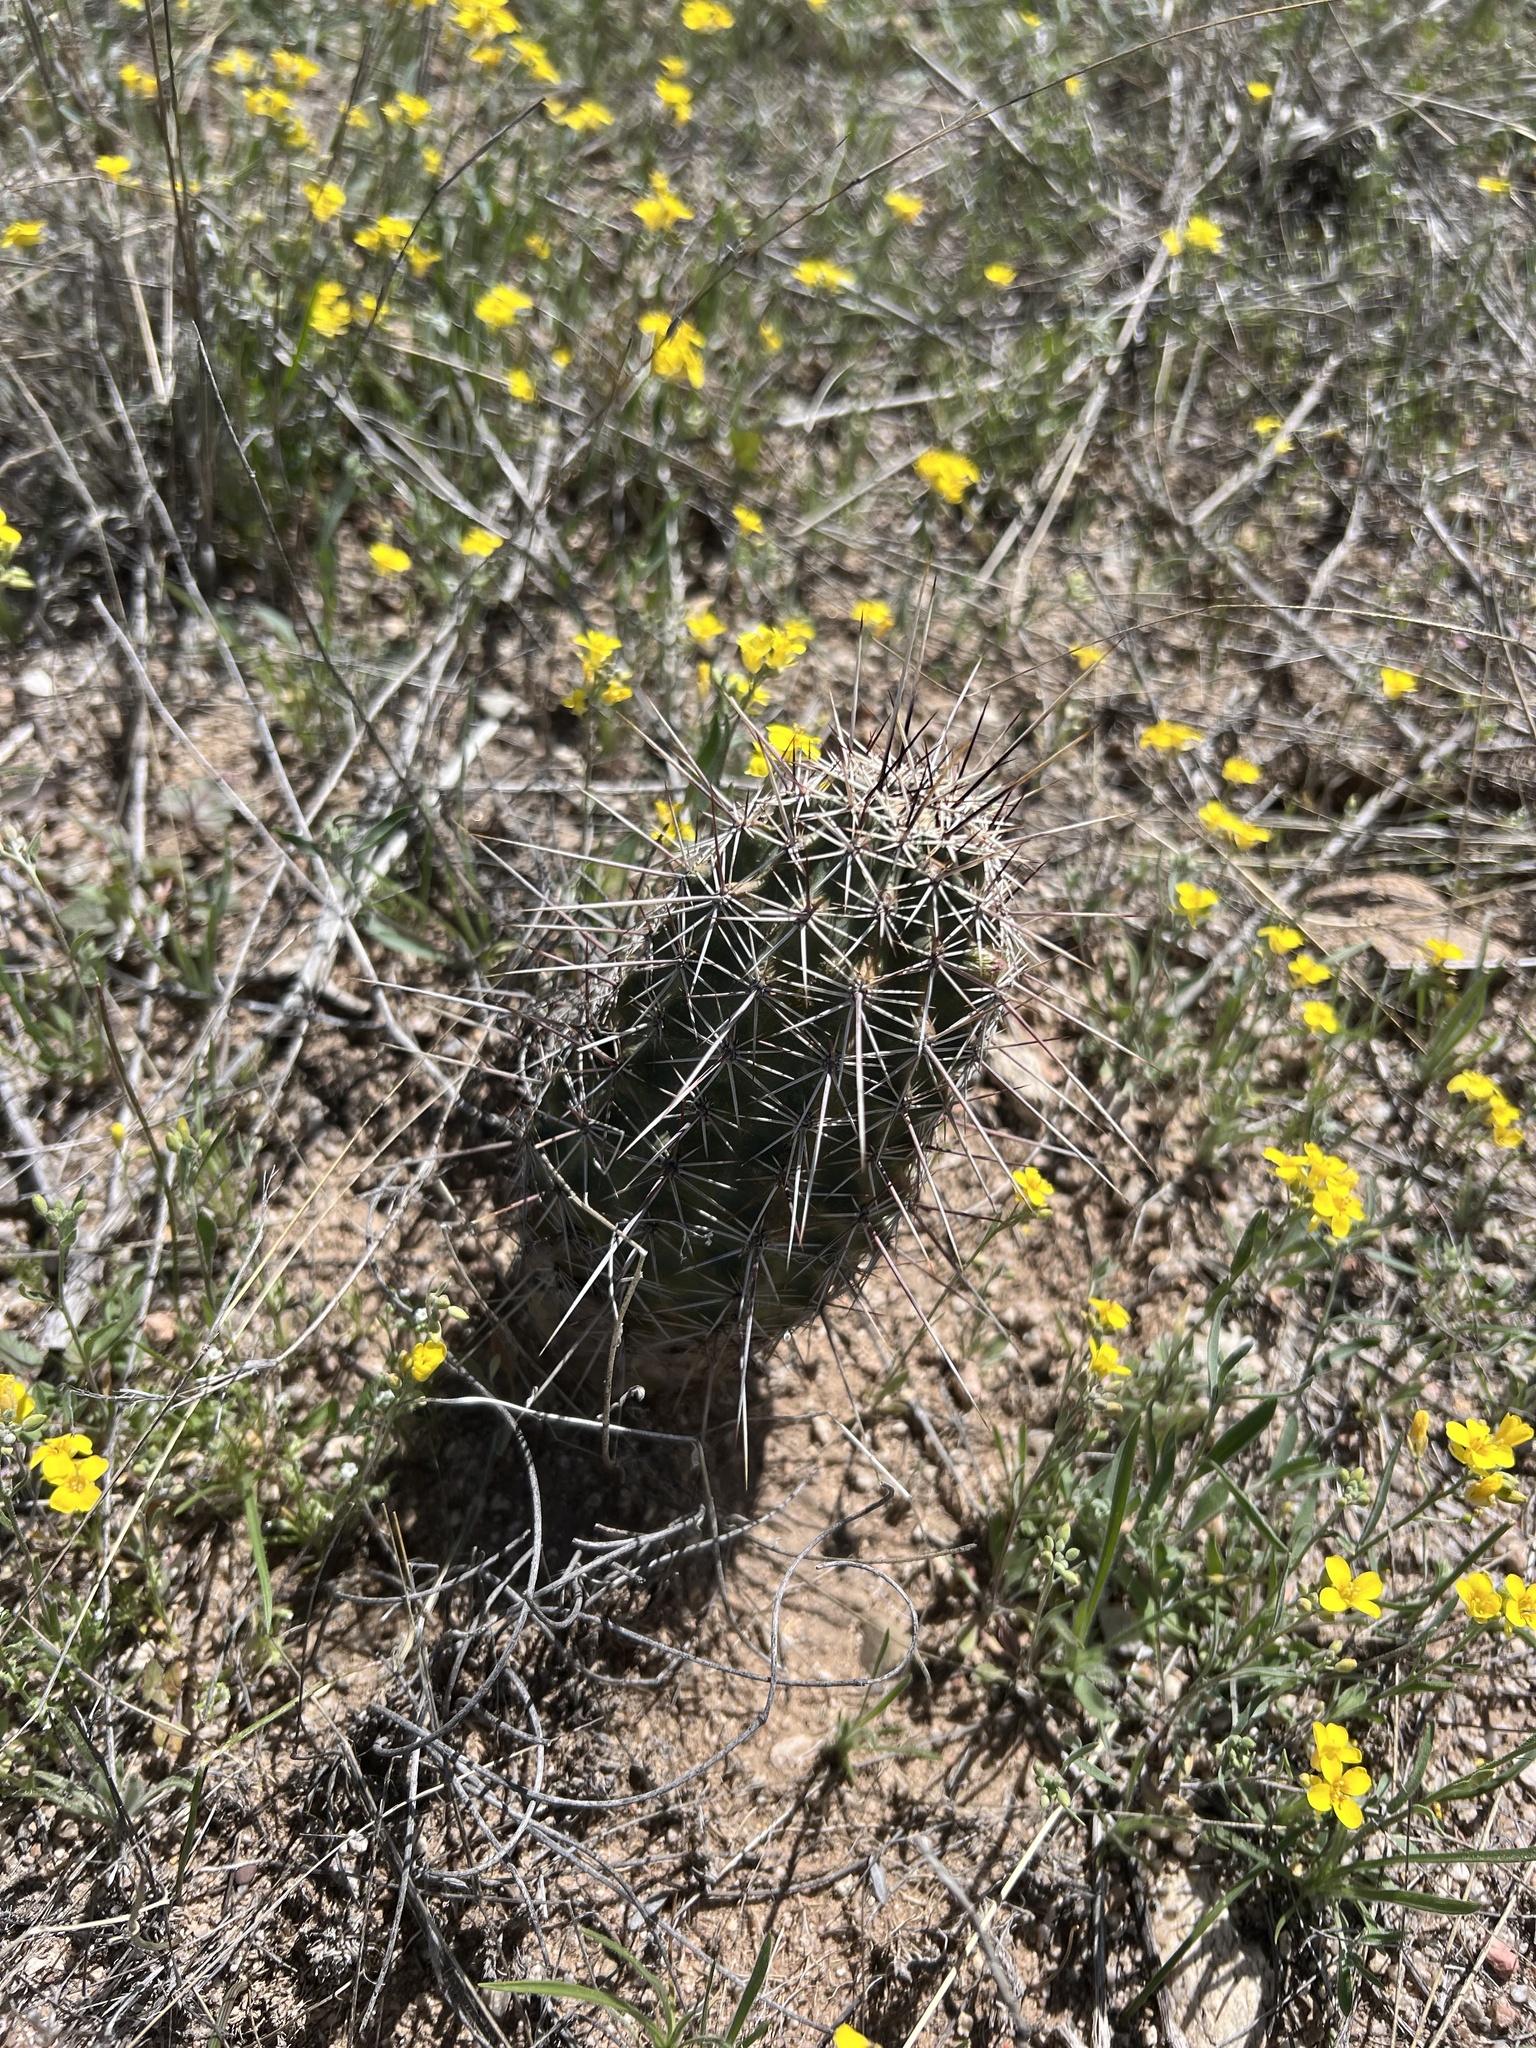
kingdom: Plantae
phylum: Tracheophyta
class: Magnoliopsida
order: Caryophyllales
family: Cactaceae
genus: Echinocereus
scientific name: Echinocereus fasciculatus
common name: Bundle hedgehog
